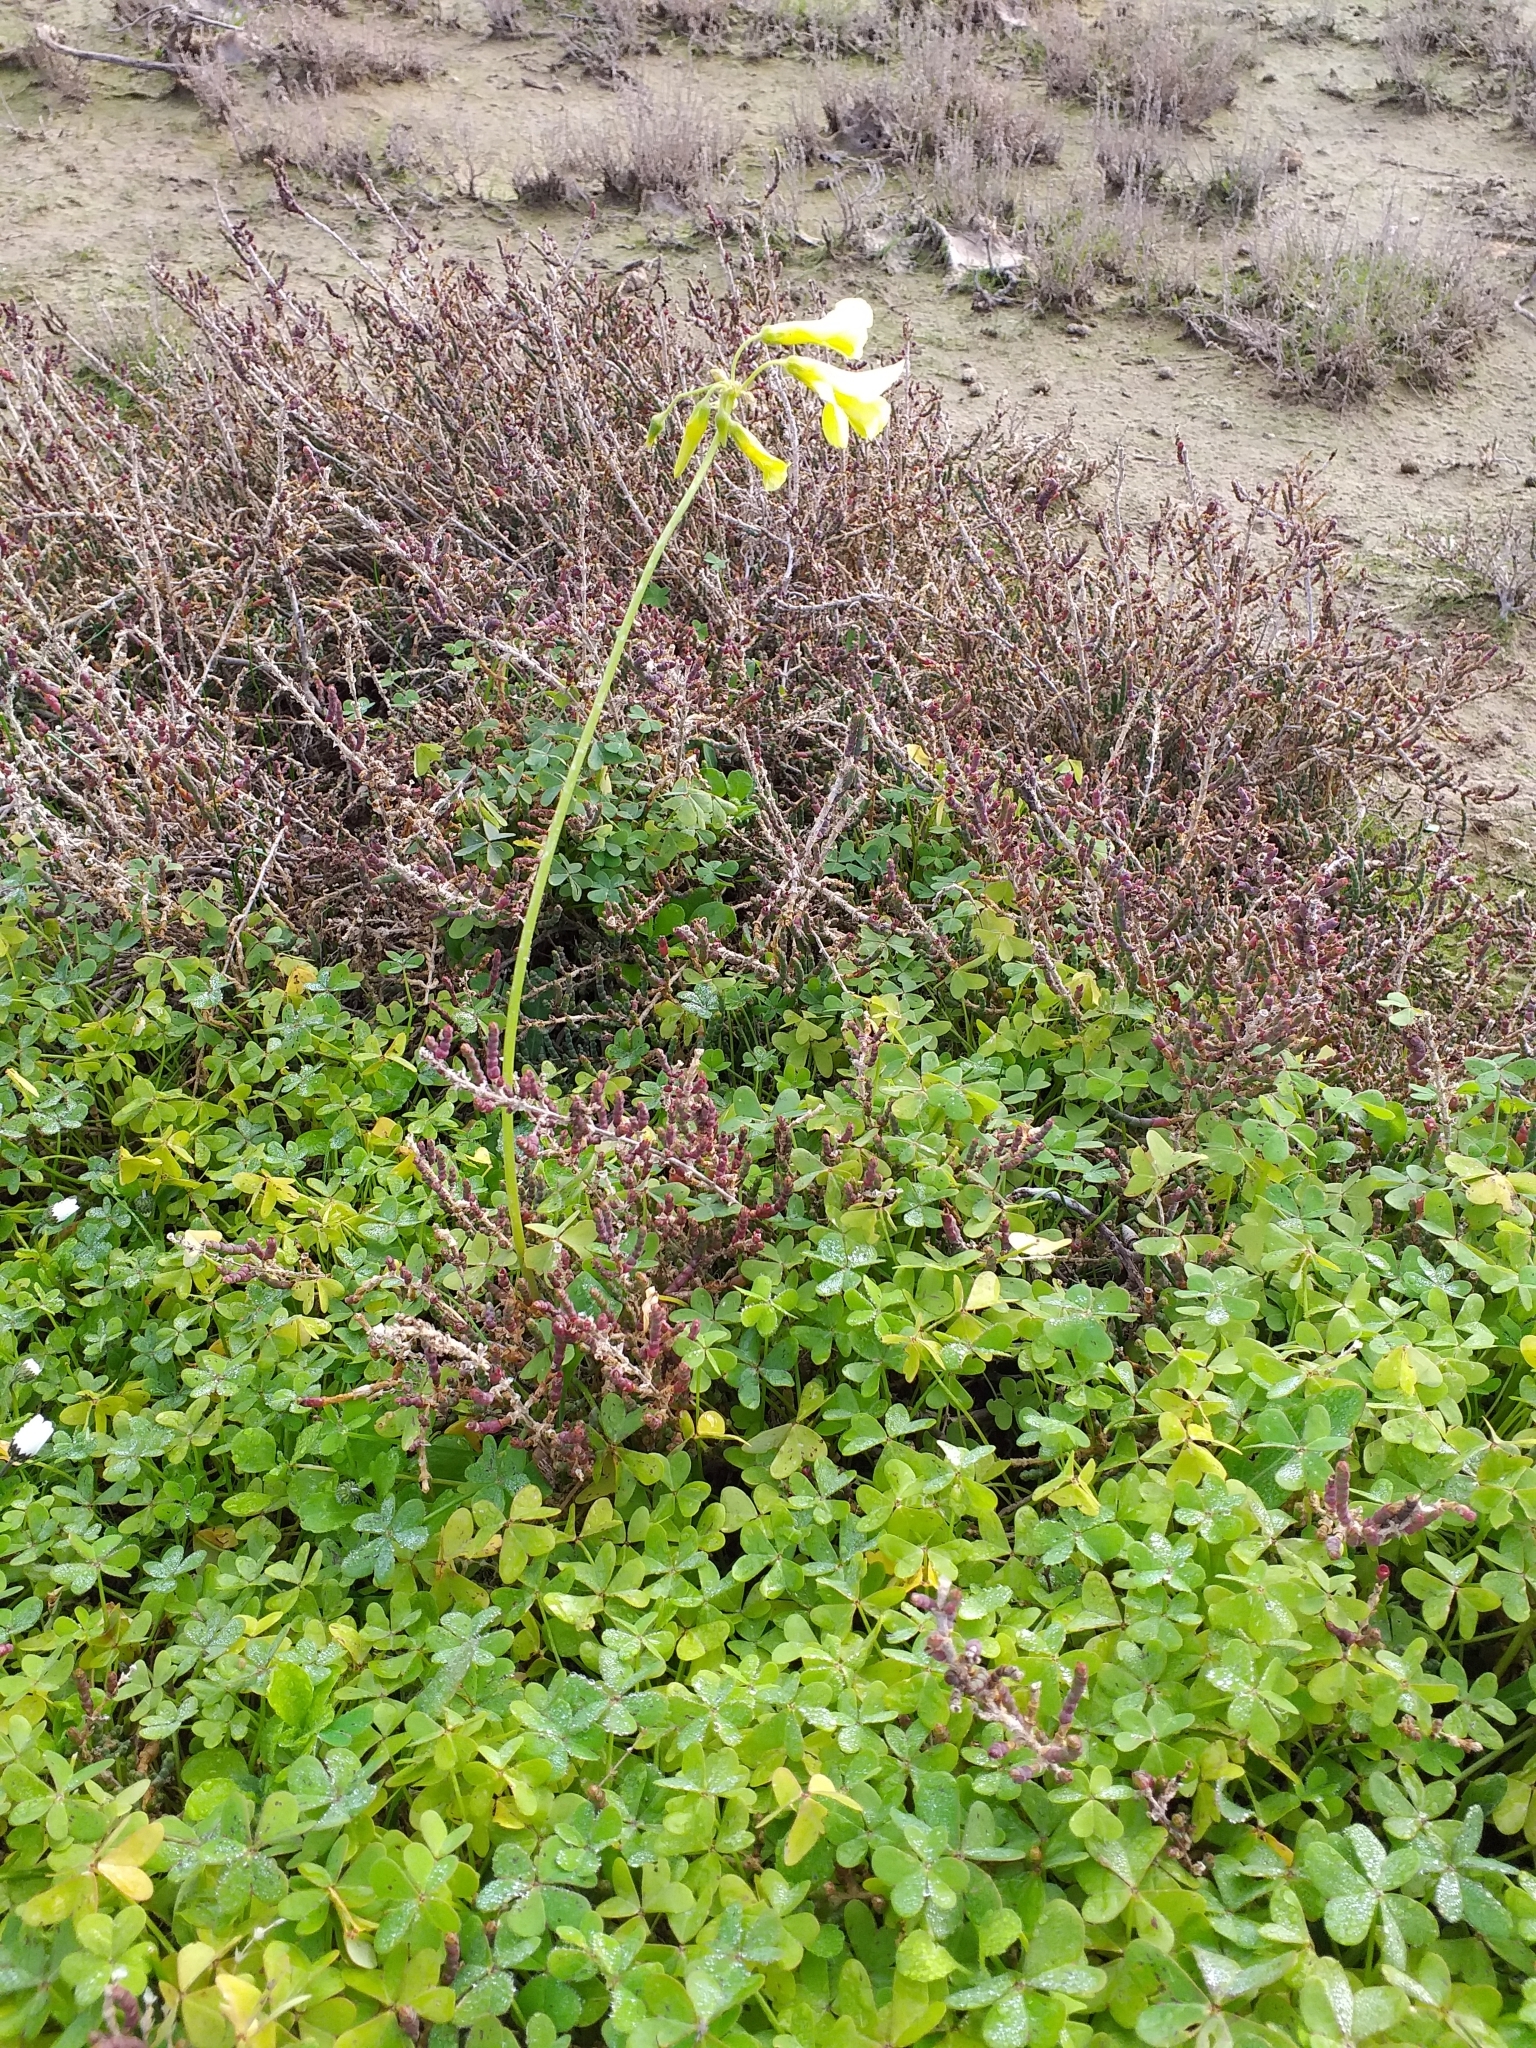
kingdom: Plantae
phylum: Tracheophyta
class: Magnoliopsida
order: Oxalidales
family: Oxalidaceae
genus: Oxalis
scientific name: Oxalis pes-caprae
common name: Bermuda-buttercup
